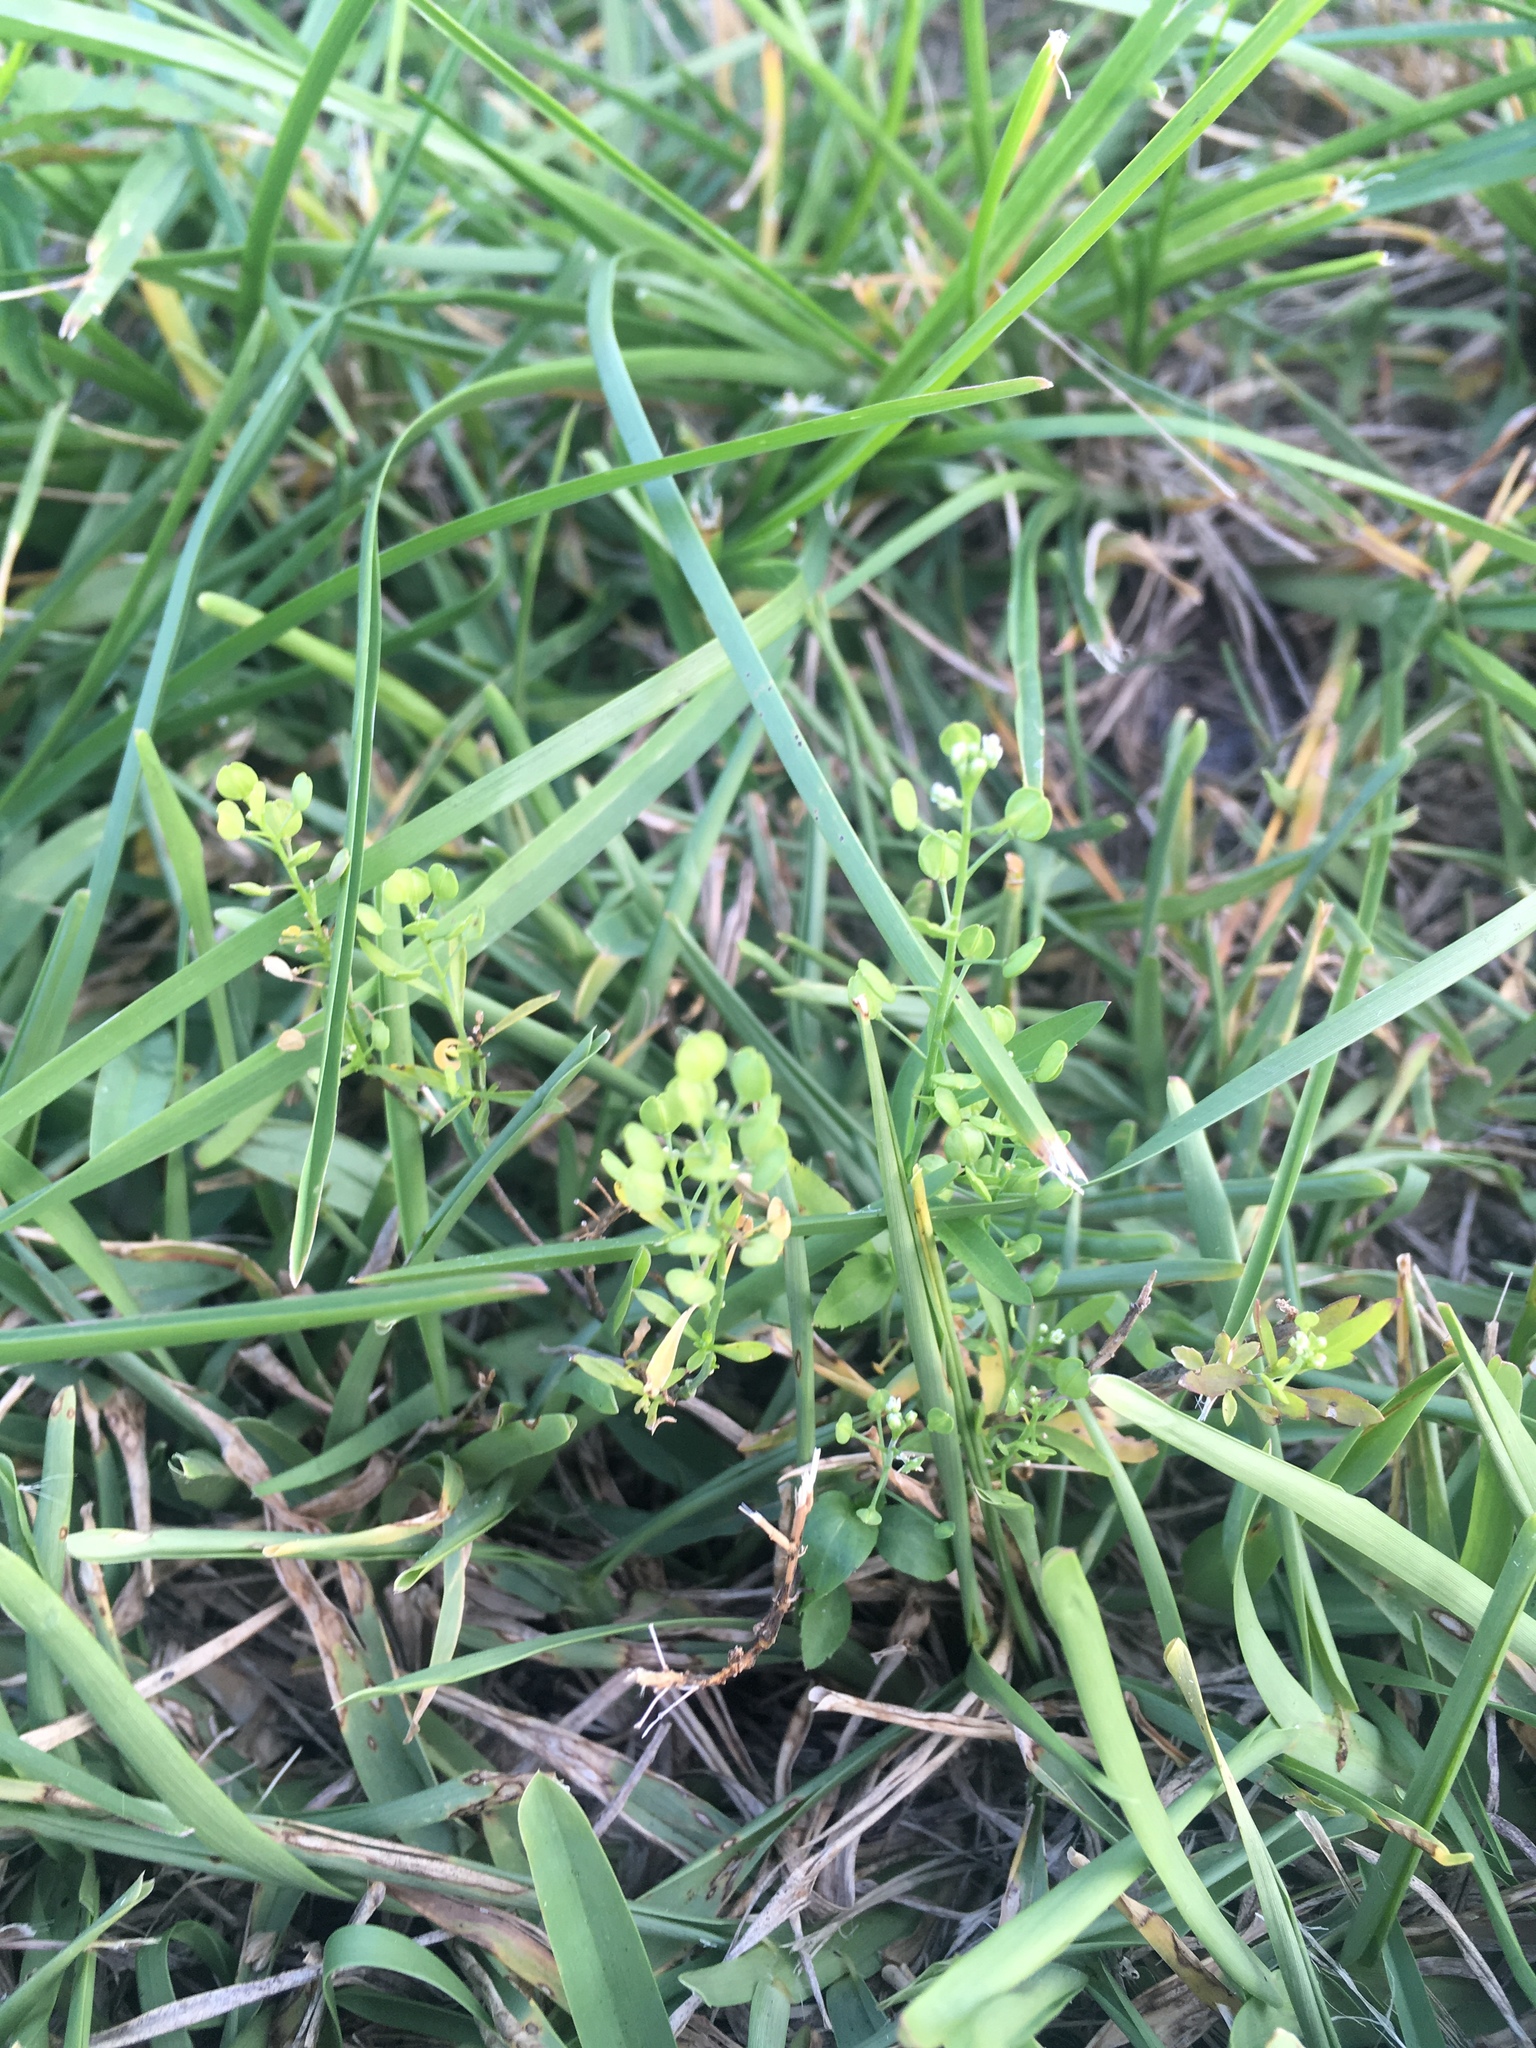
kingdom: Plantae
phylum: Tracheophyta
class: Magnoliopsida
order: Brassicales
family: Brassicaceae
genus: Lepidium
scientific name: Lepidium virginicum
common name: Least pepperwort
